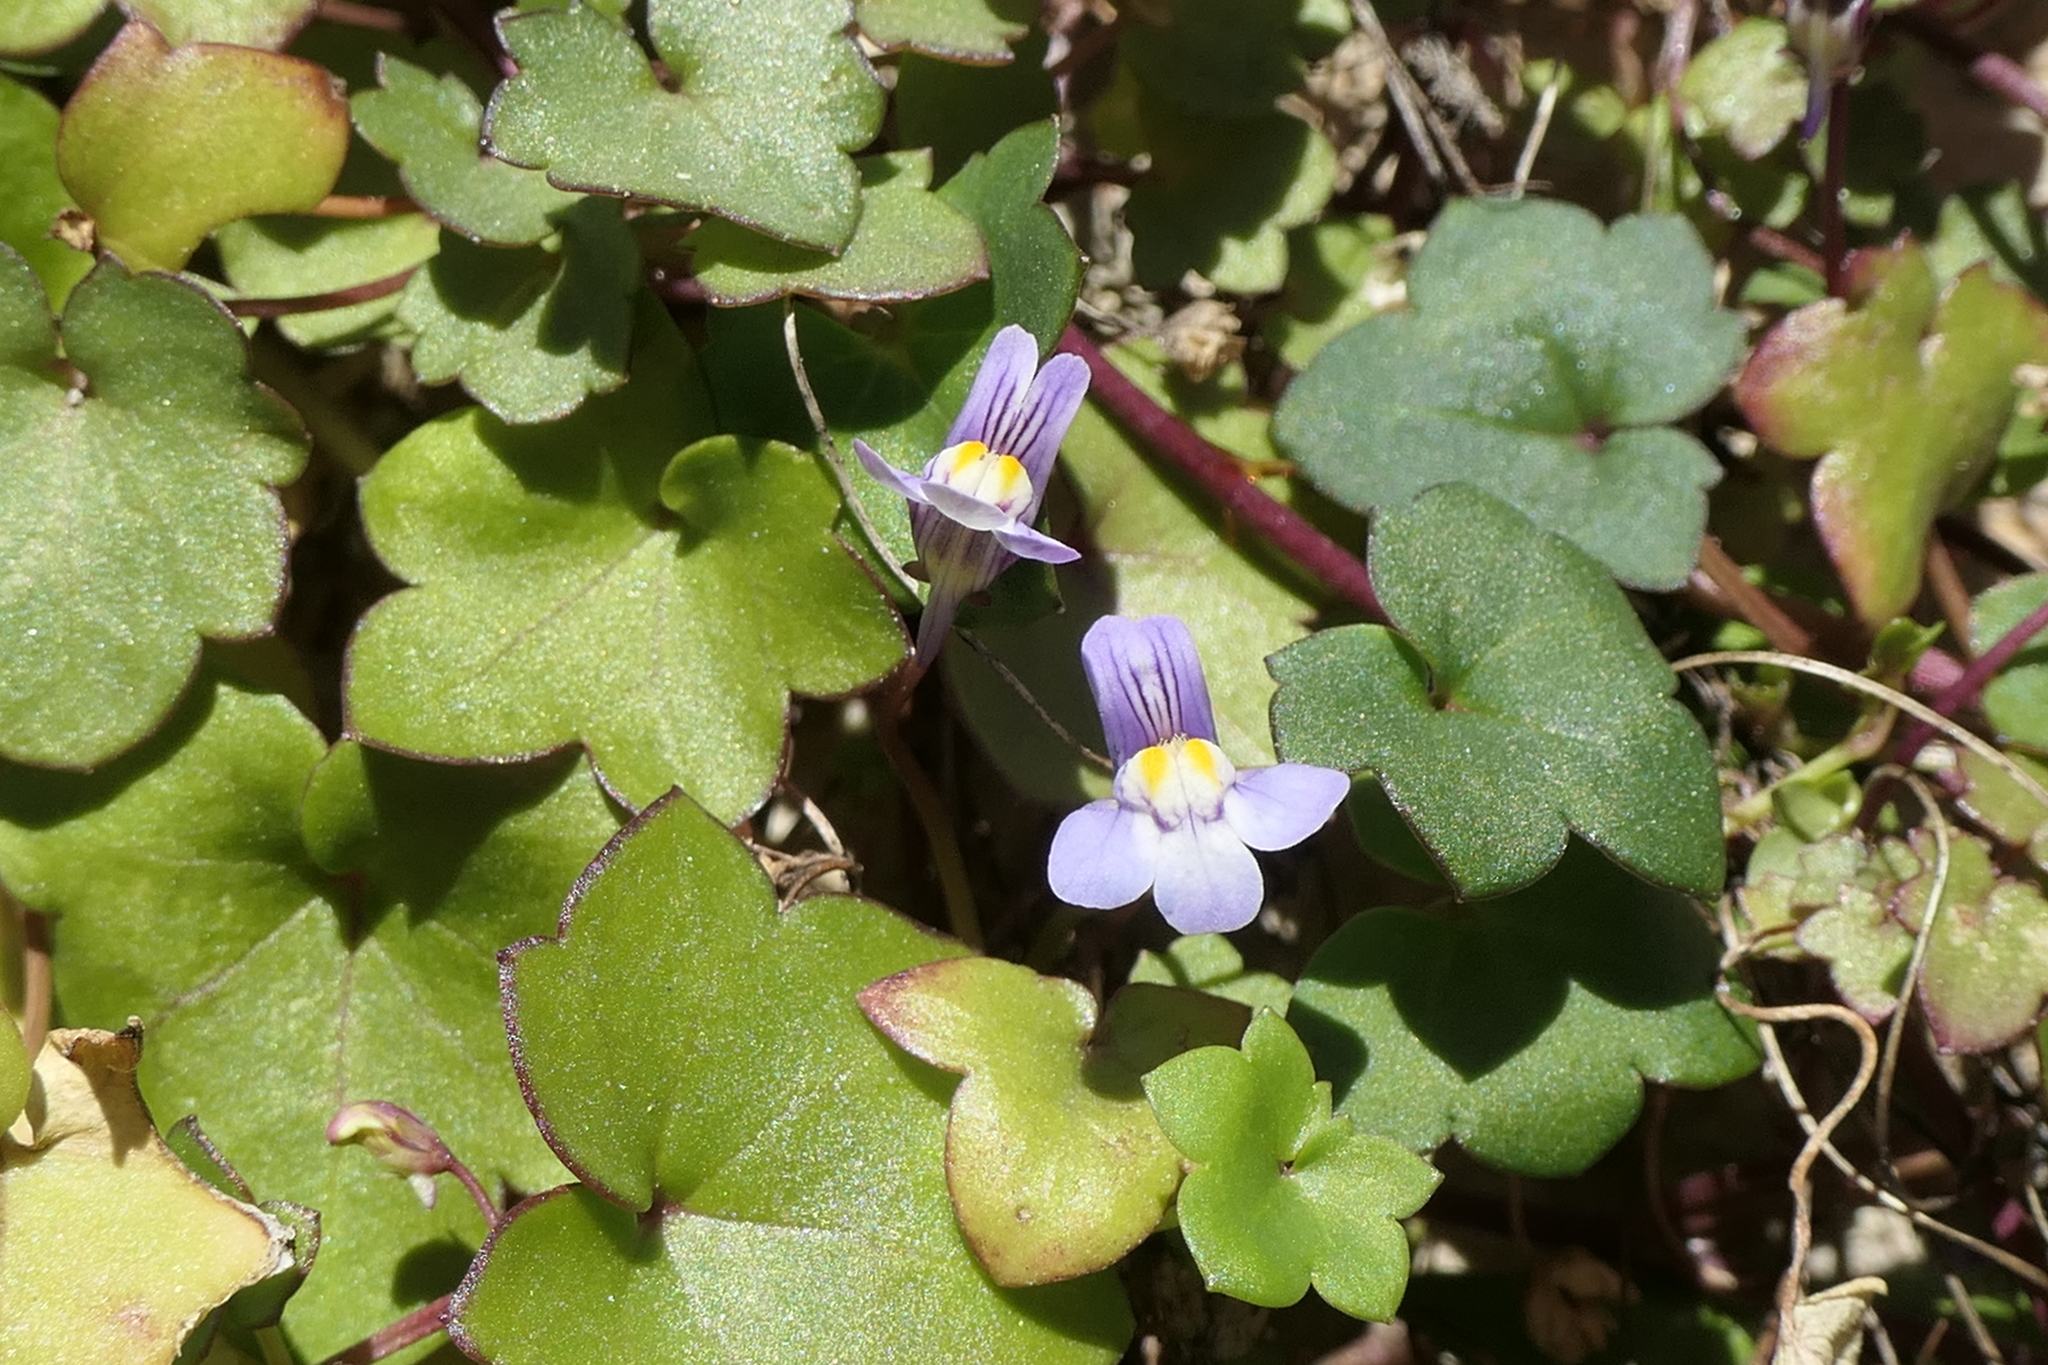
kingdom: Plantae
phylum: Tracheophyta
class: Magnoliopsida
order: Lamiales
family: Plantaginaceae
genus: Cymbalaria
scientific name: Cymbalaria muralis
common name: Ivy-leaved toadflax
